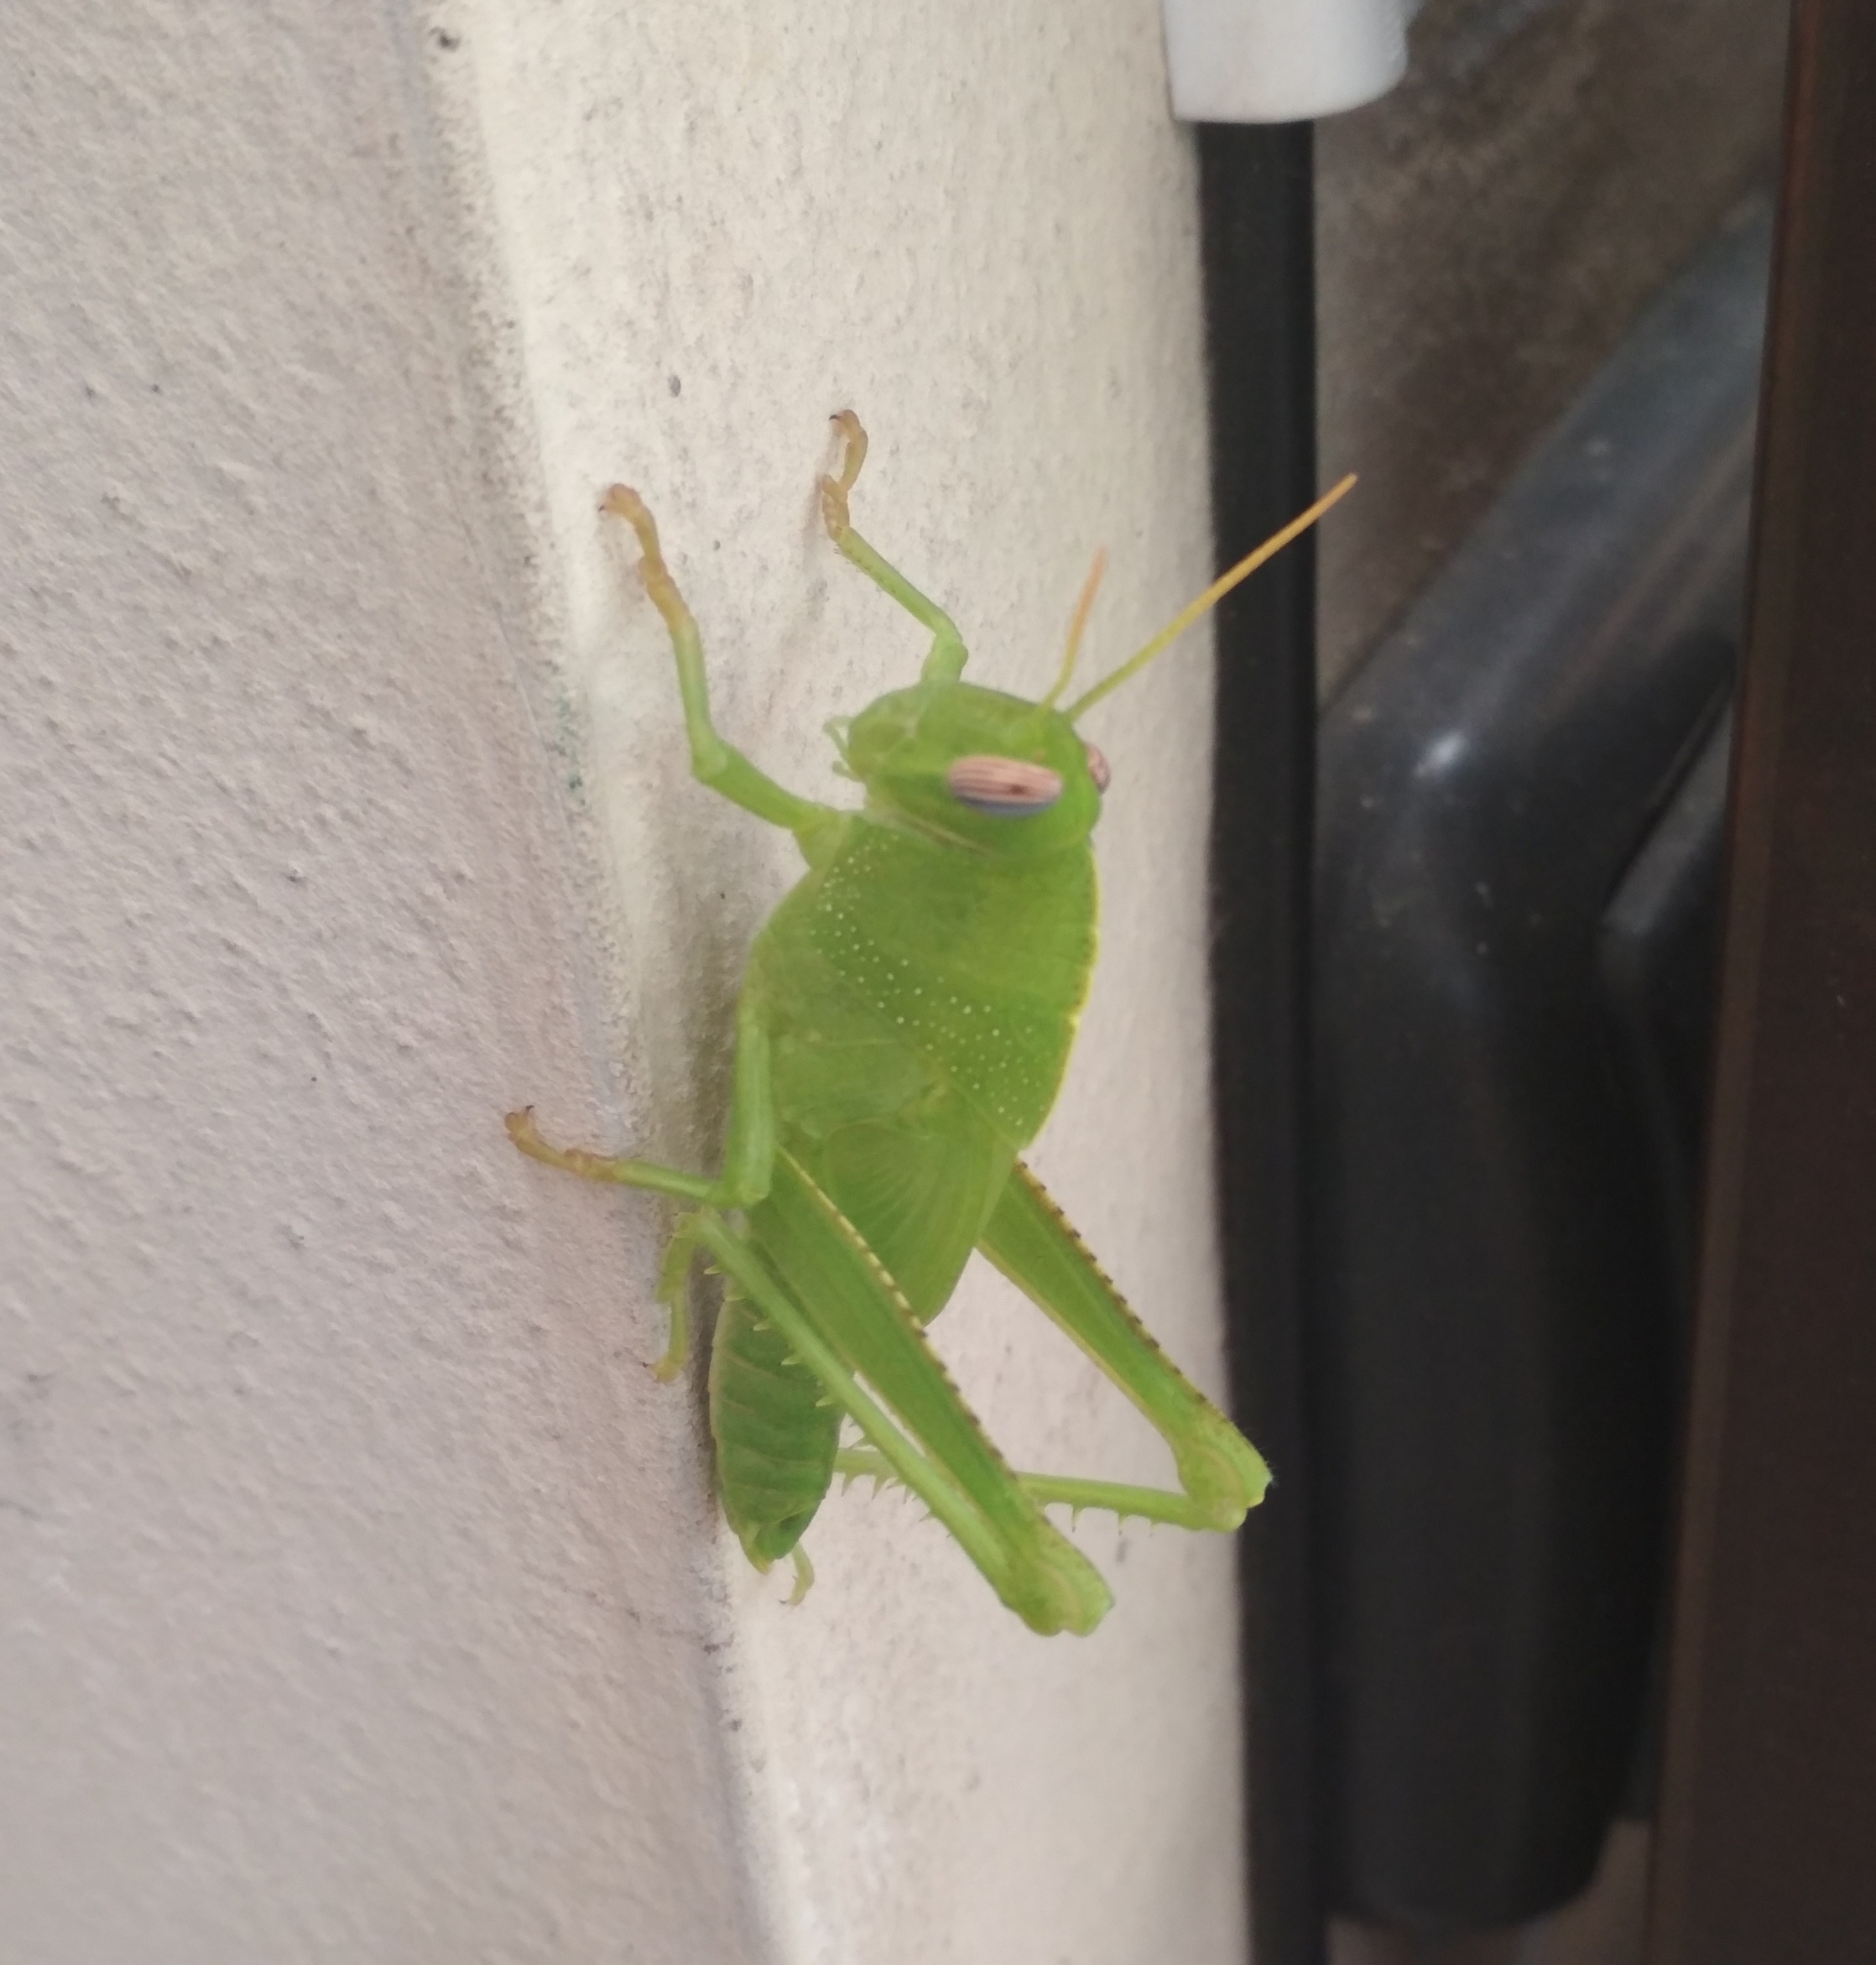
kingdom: Animalia
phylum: Arthropoda
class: Insecta
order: Orthoptera
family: Acrididae
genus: Anacridium
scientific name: Anacridium aegyptium
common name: Egyptian grasshopper
